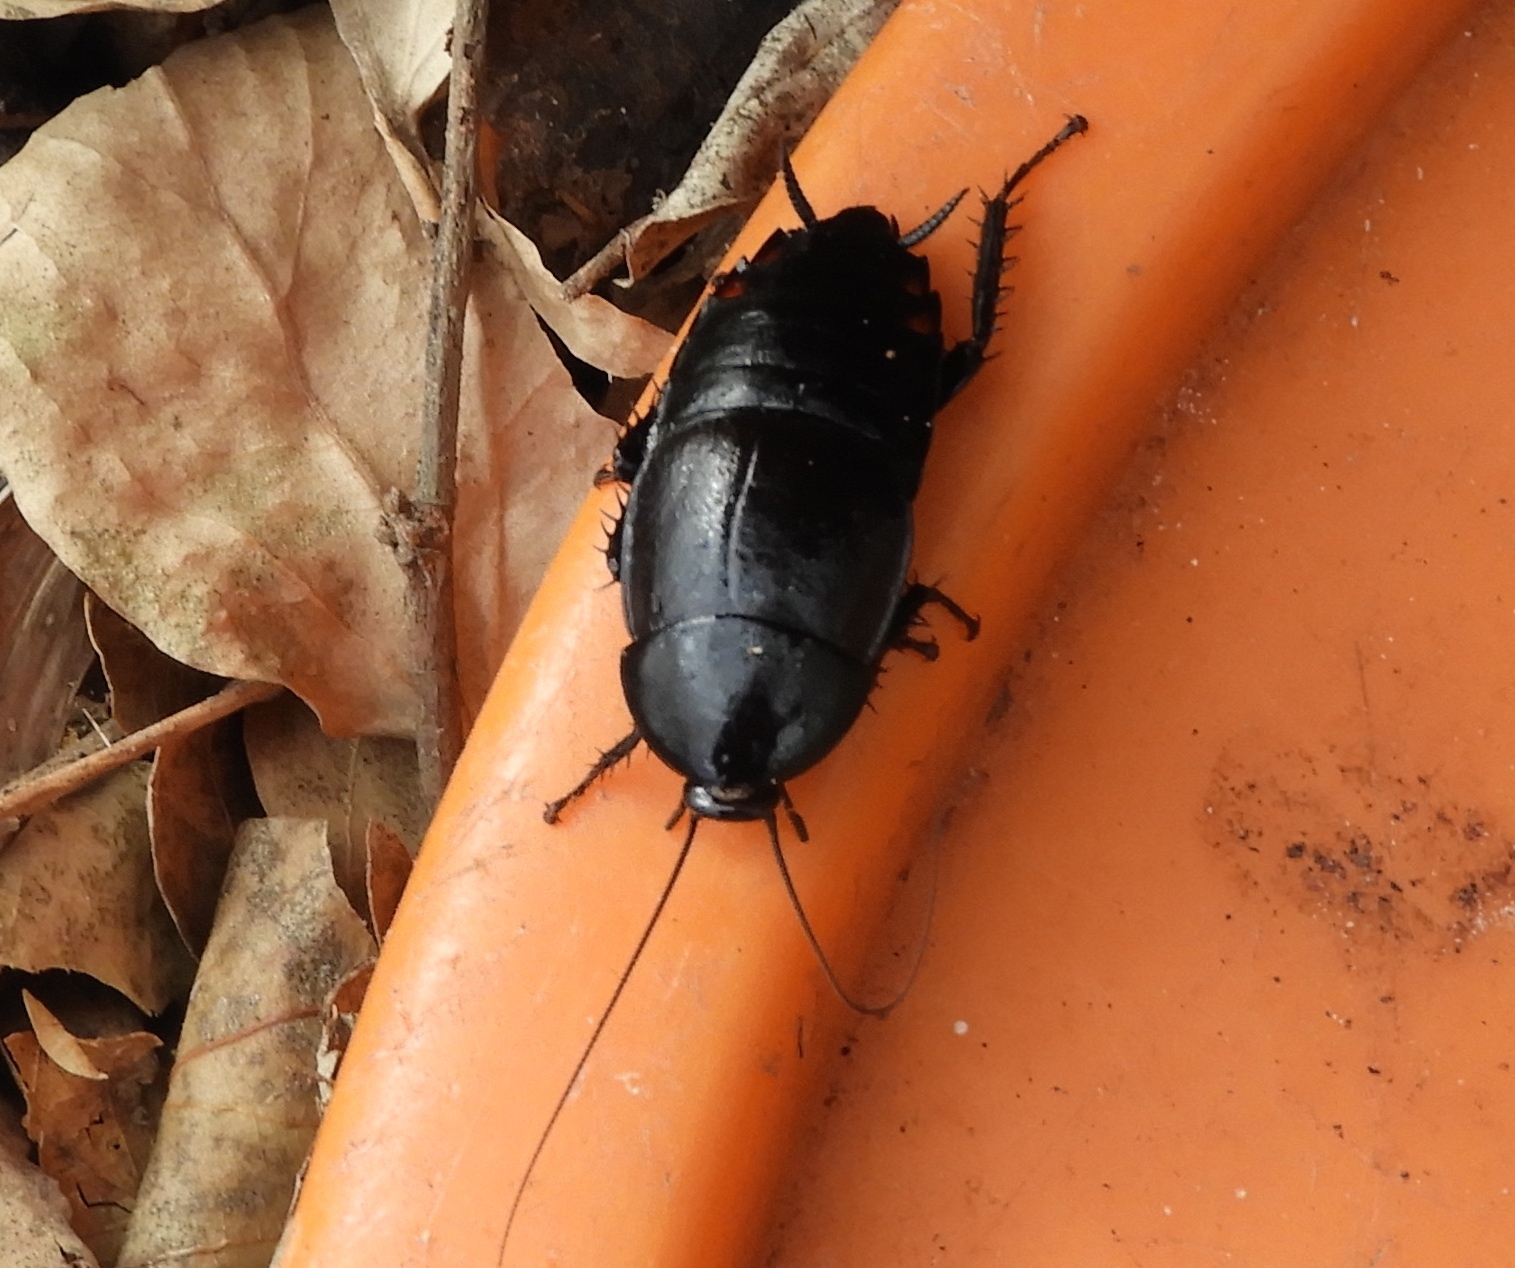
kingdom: Animalia
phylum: Arthropoda
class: Insecta
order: Blattodea
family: Ectobiidae
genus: Nyctibora
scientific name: Nyctibora tetrasticta
